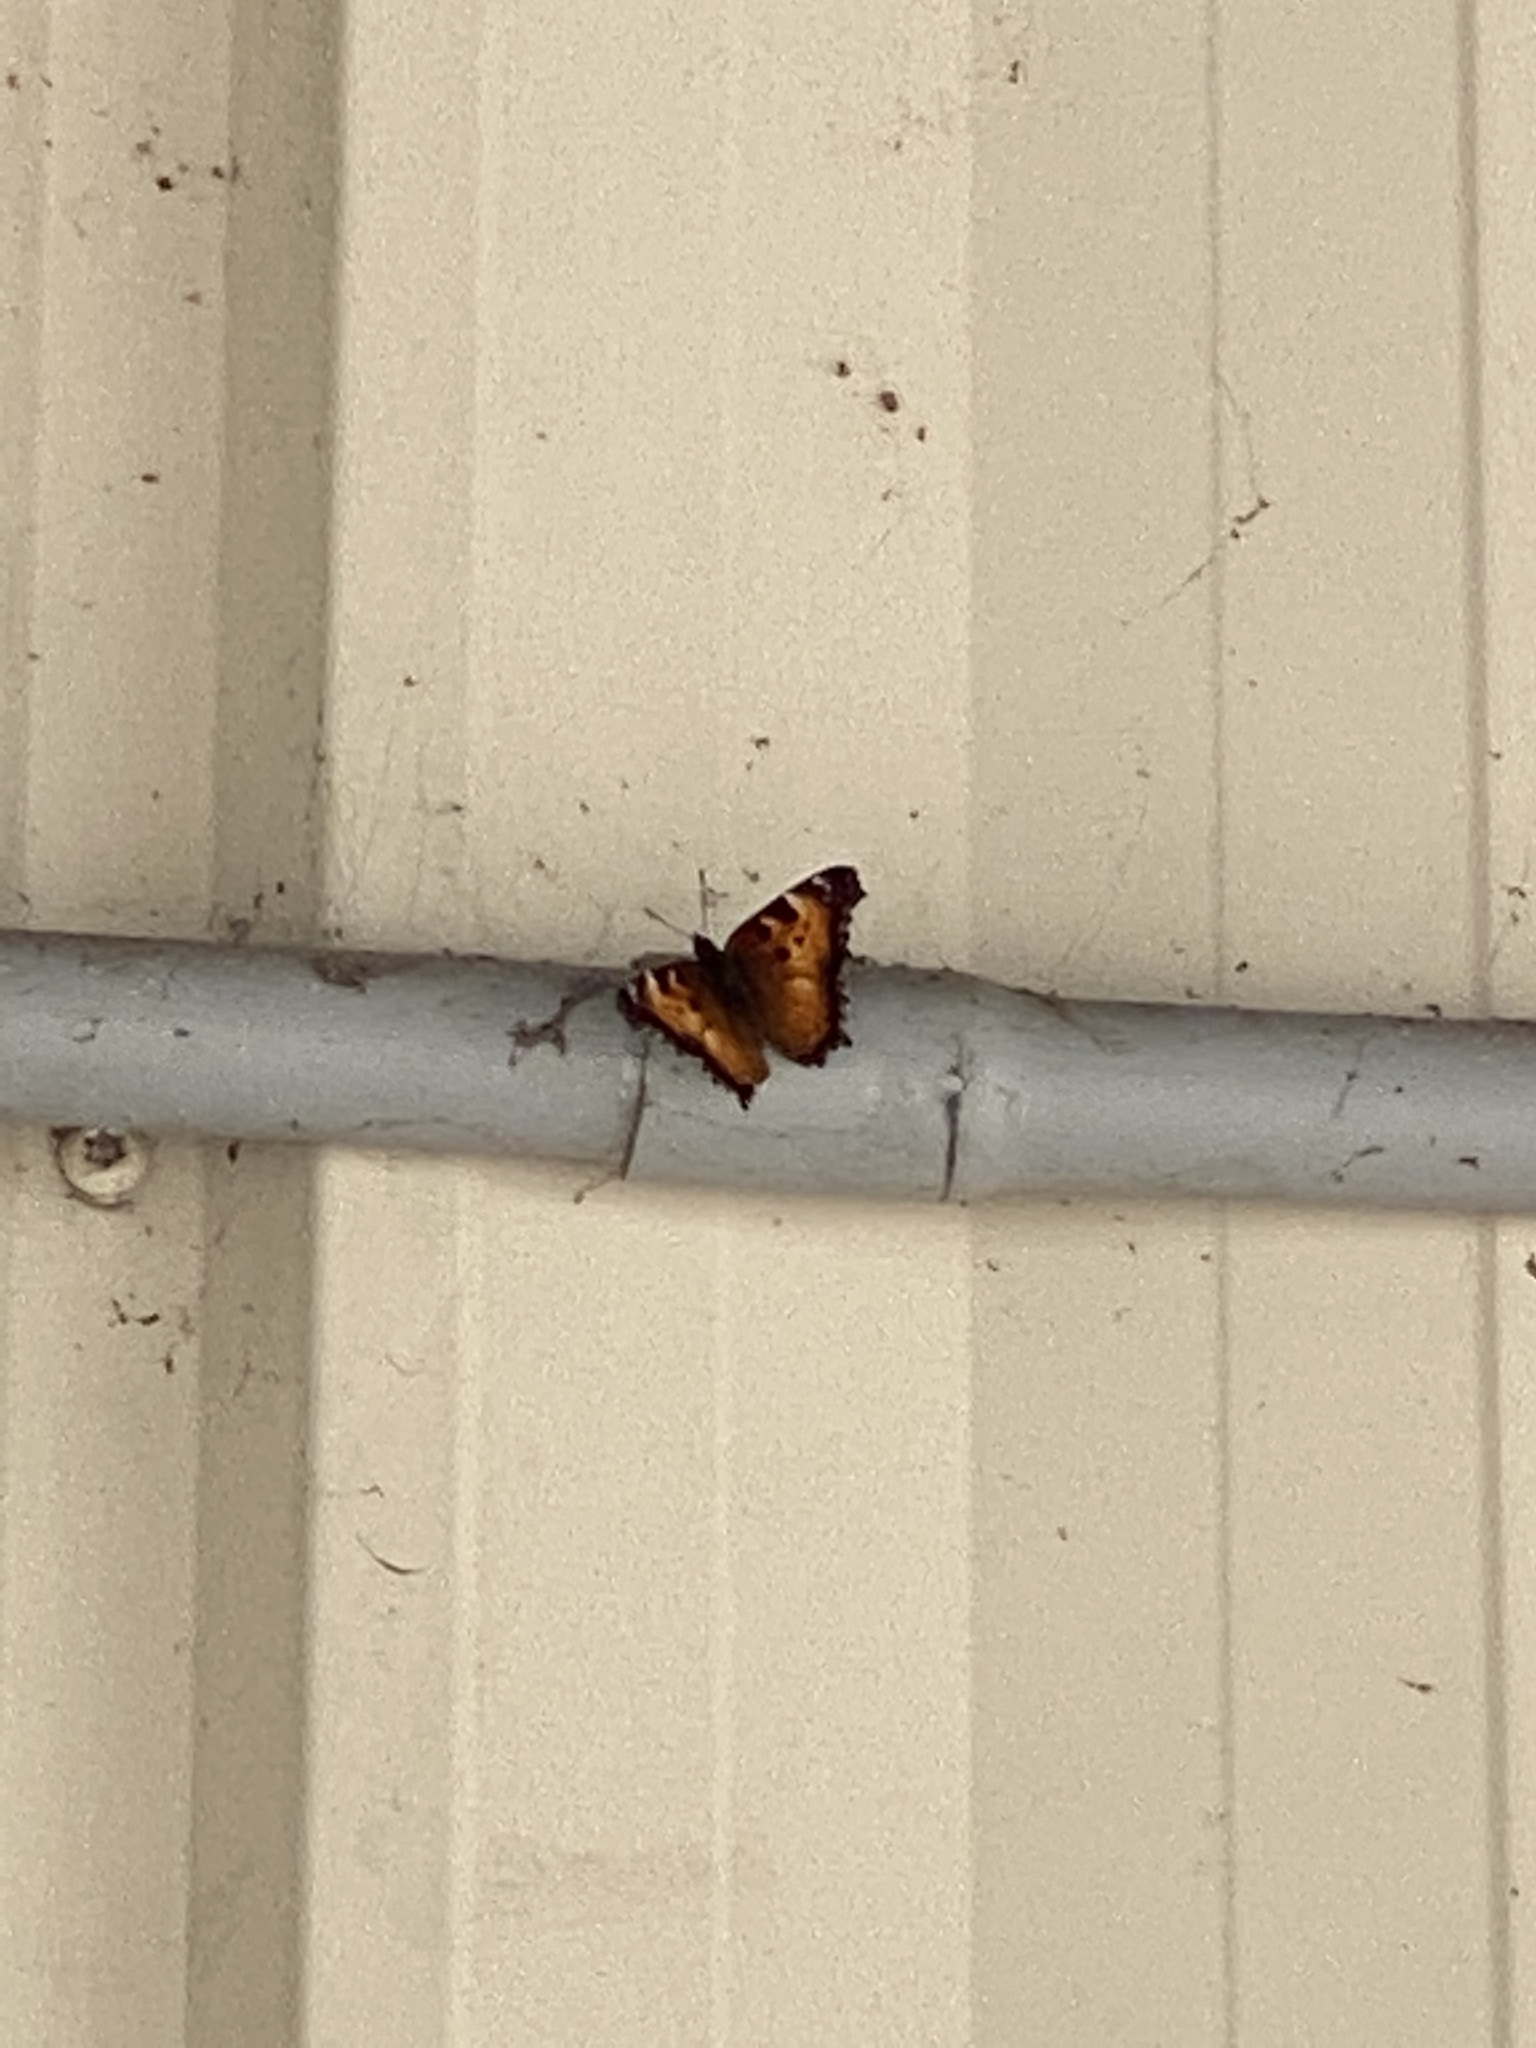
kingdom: Animalia
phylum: Arthropoda
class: Insecta
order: Lepidoptera
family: Nymphalidae
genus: Nymphalis
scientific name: Nymphalis californica
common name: California tortoiseshell
